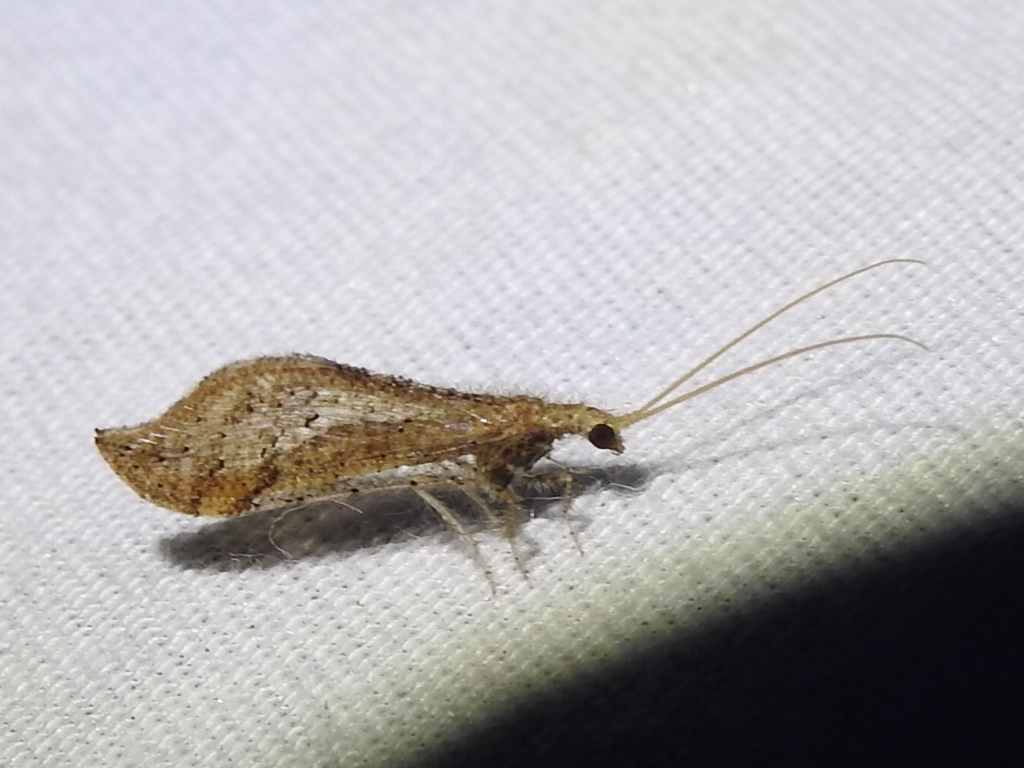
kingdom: Animalia
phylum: Arthropoda
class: Insecta
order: Neuroptera
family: Berothidae
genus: Lomamyia
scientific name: Lomamyia
